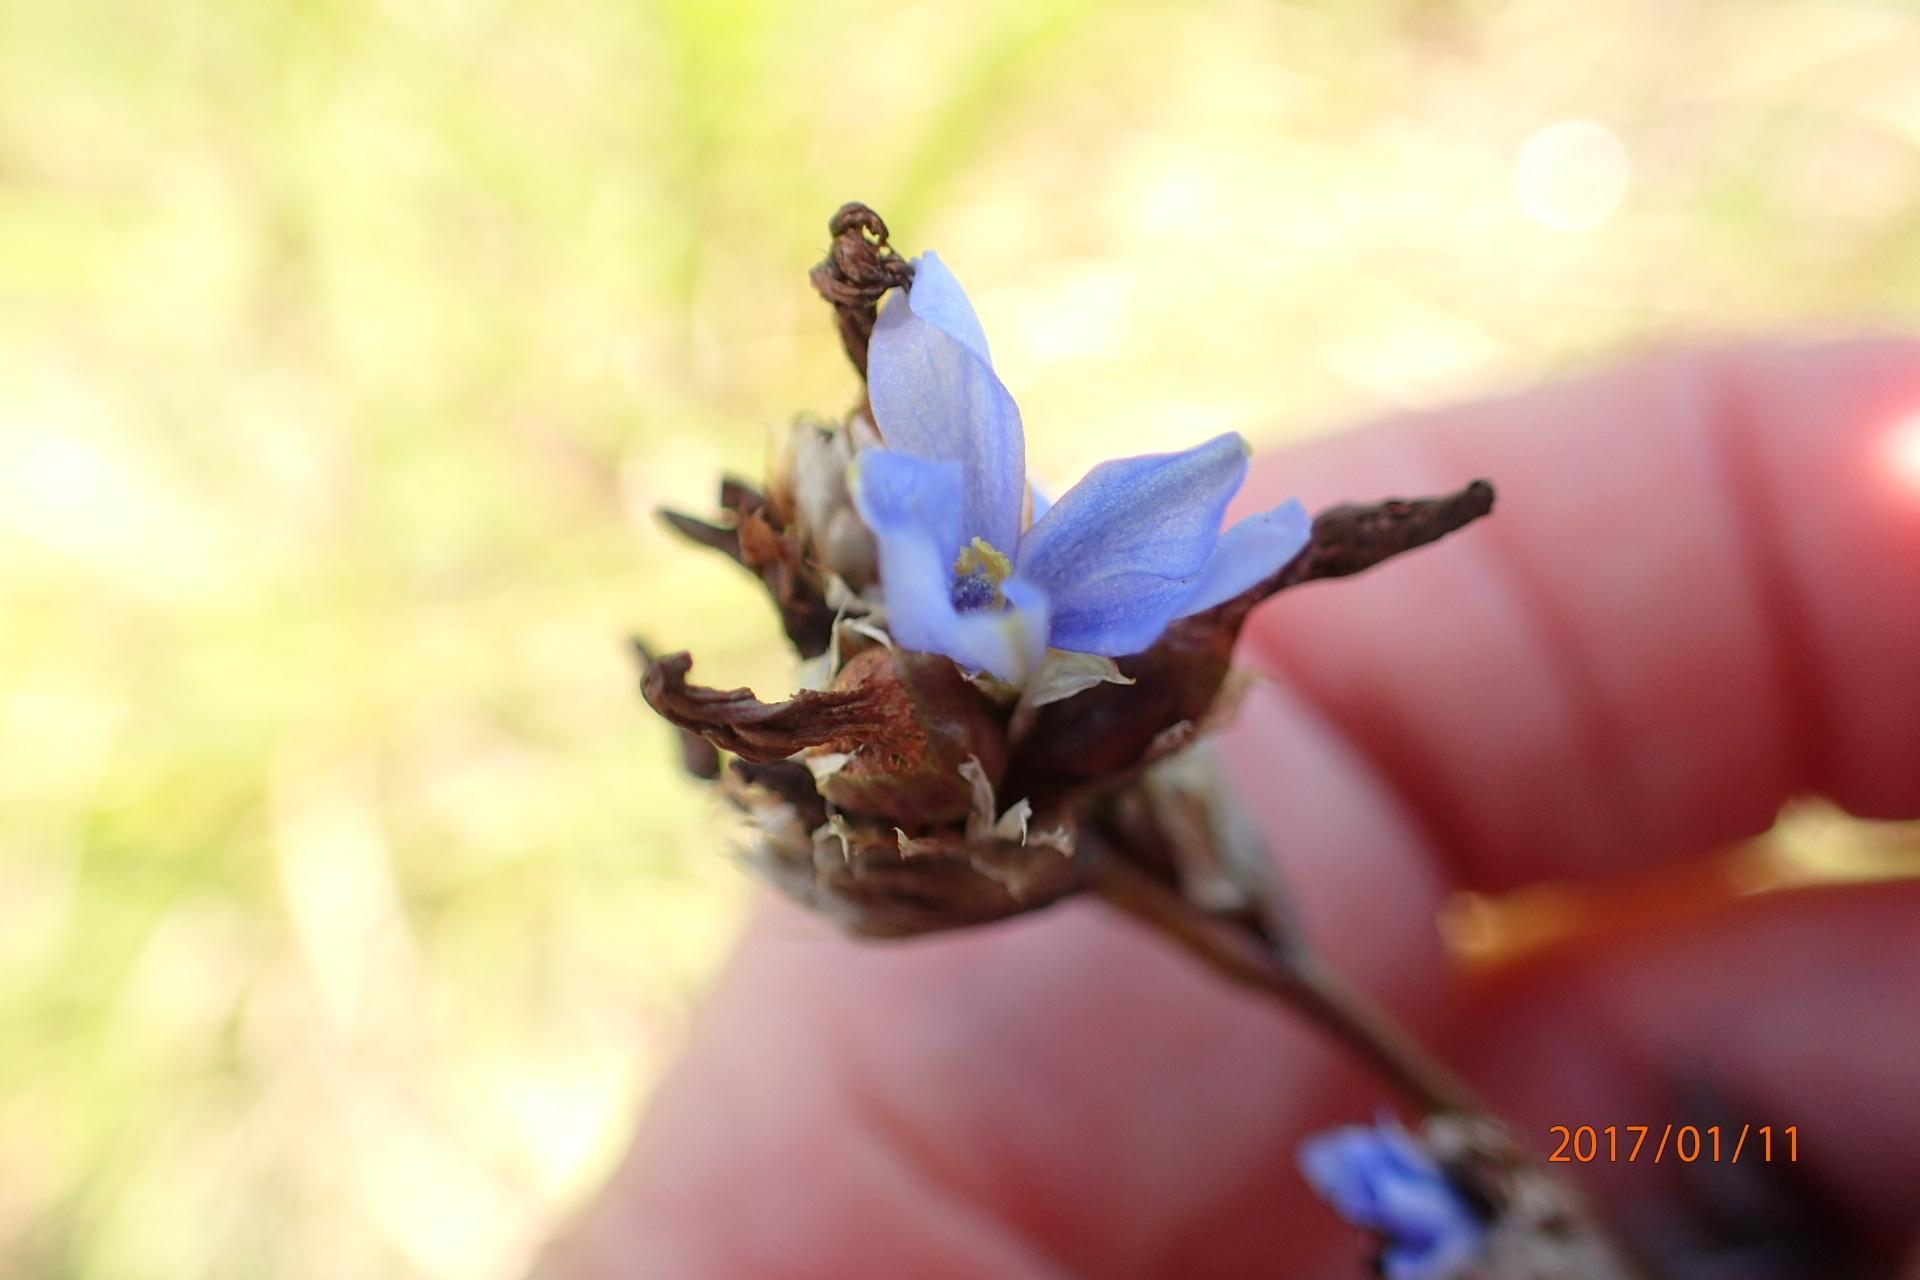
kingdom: Plantae
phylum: Tracheophyta
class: Liliopsida
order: Asparagales
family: Iridaceae
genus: Aristea
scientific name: Aristea torulosa
